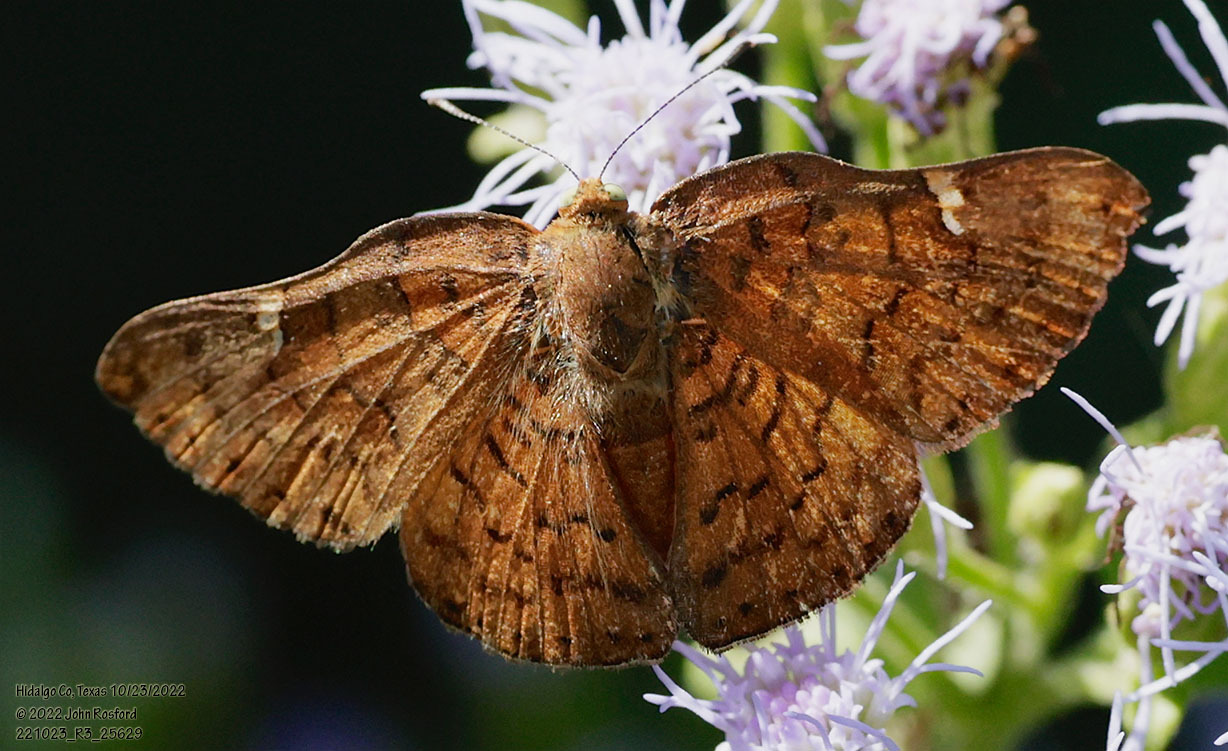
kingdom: Animalia
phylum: Arthropoda
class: Insecta
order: Lepidoptera
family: Riodinidae
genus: Curvie
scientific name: Curvie emesia
